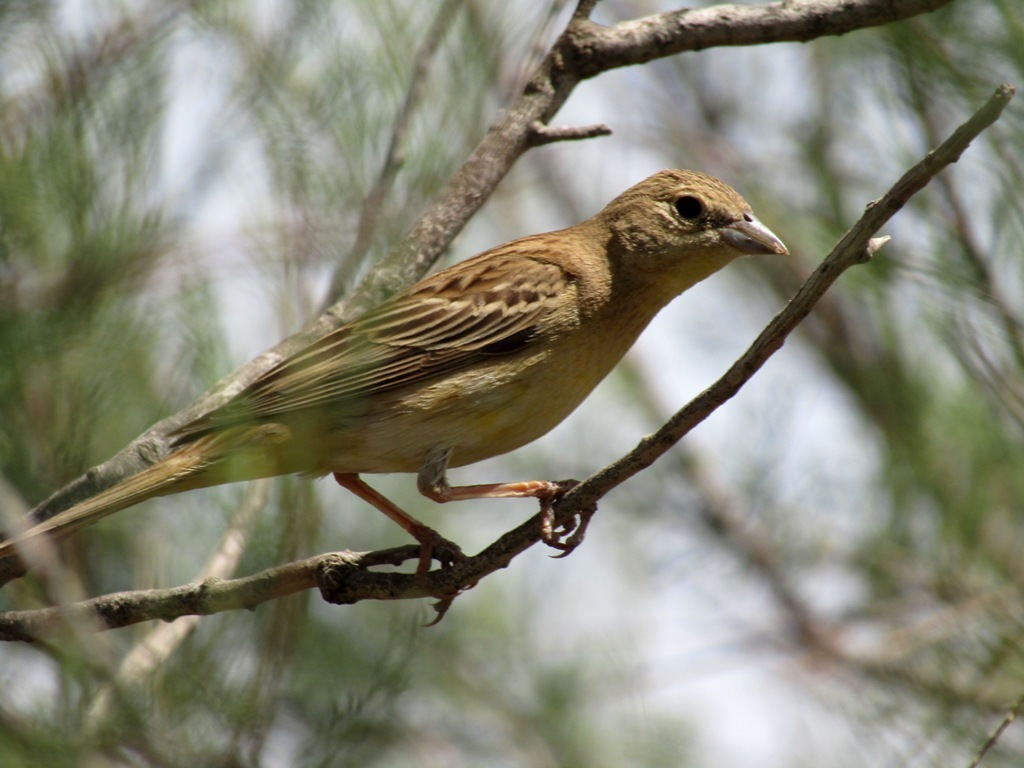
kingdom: Animalia
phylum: Chordata
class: Aves
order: Passeriformes
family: Emberizidae
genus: Emberiza
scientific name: Emberiza melanocephala
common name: Black-headed bunting
